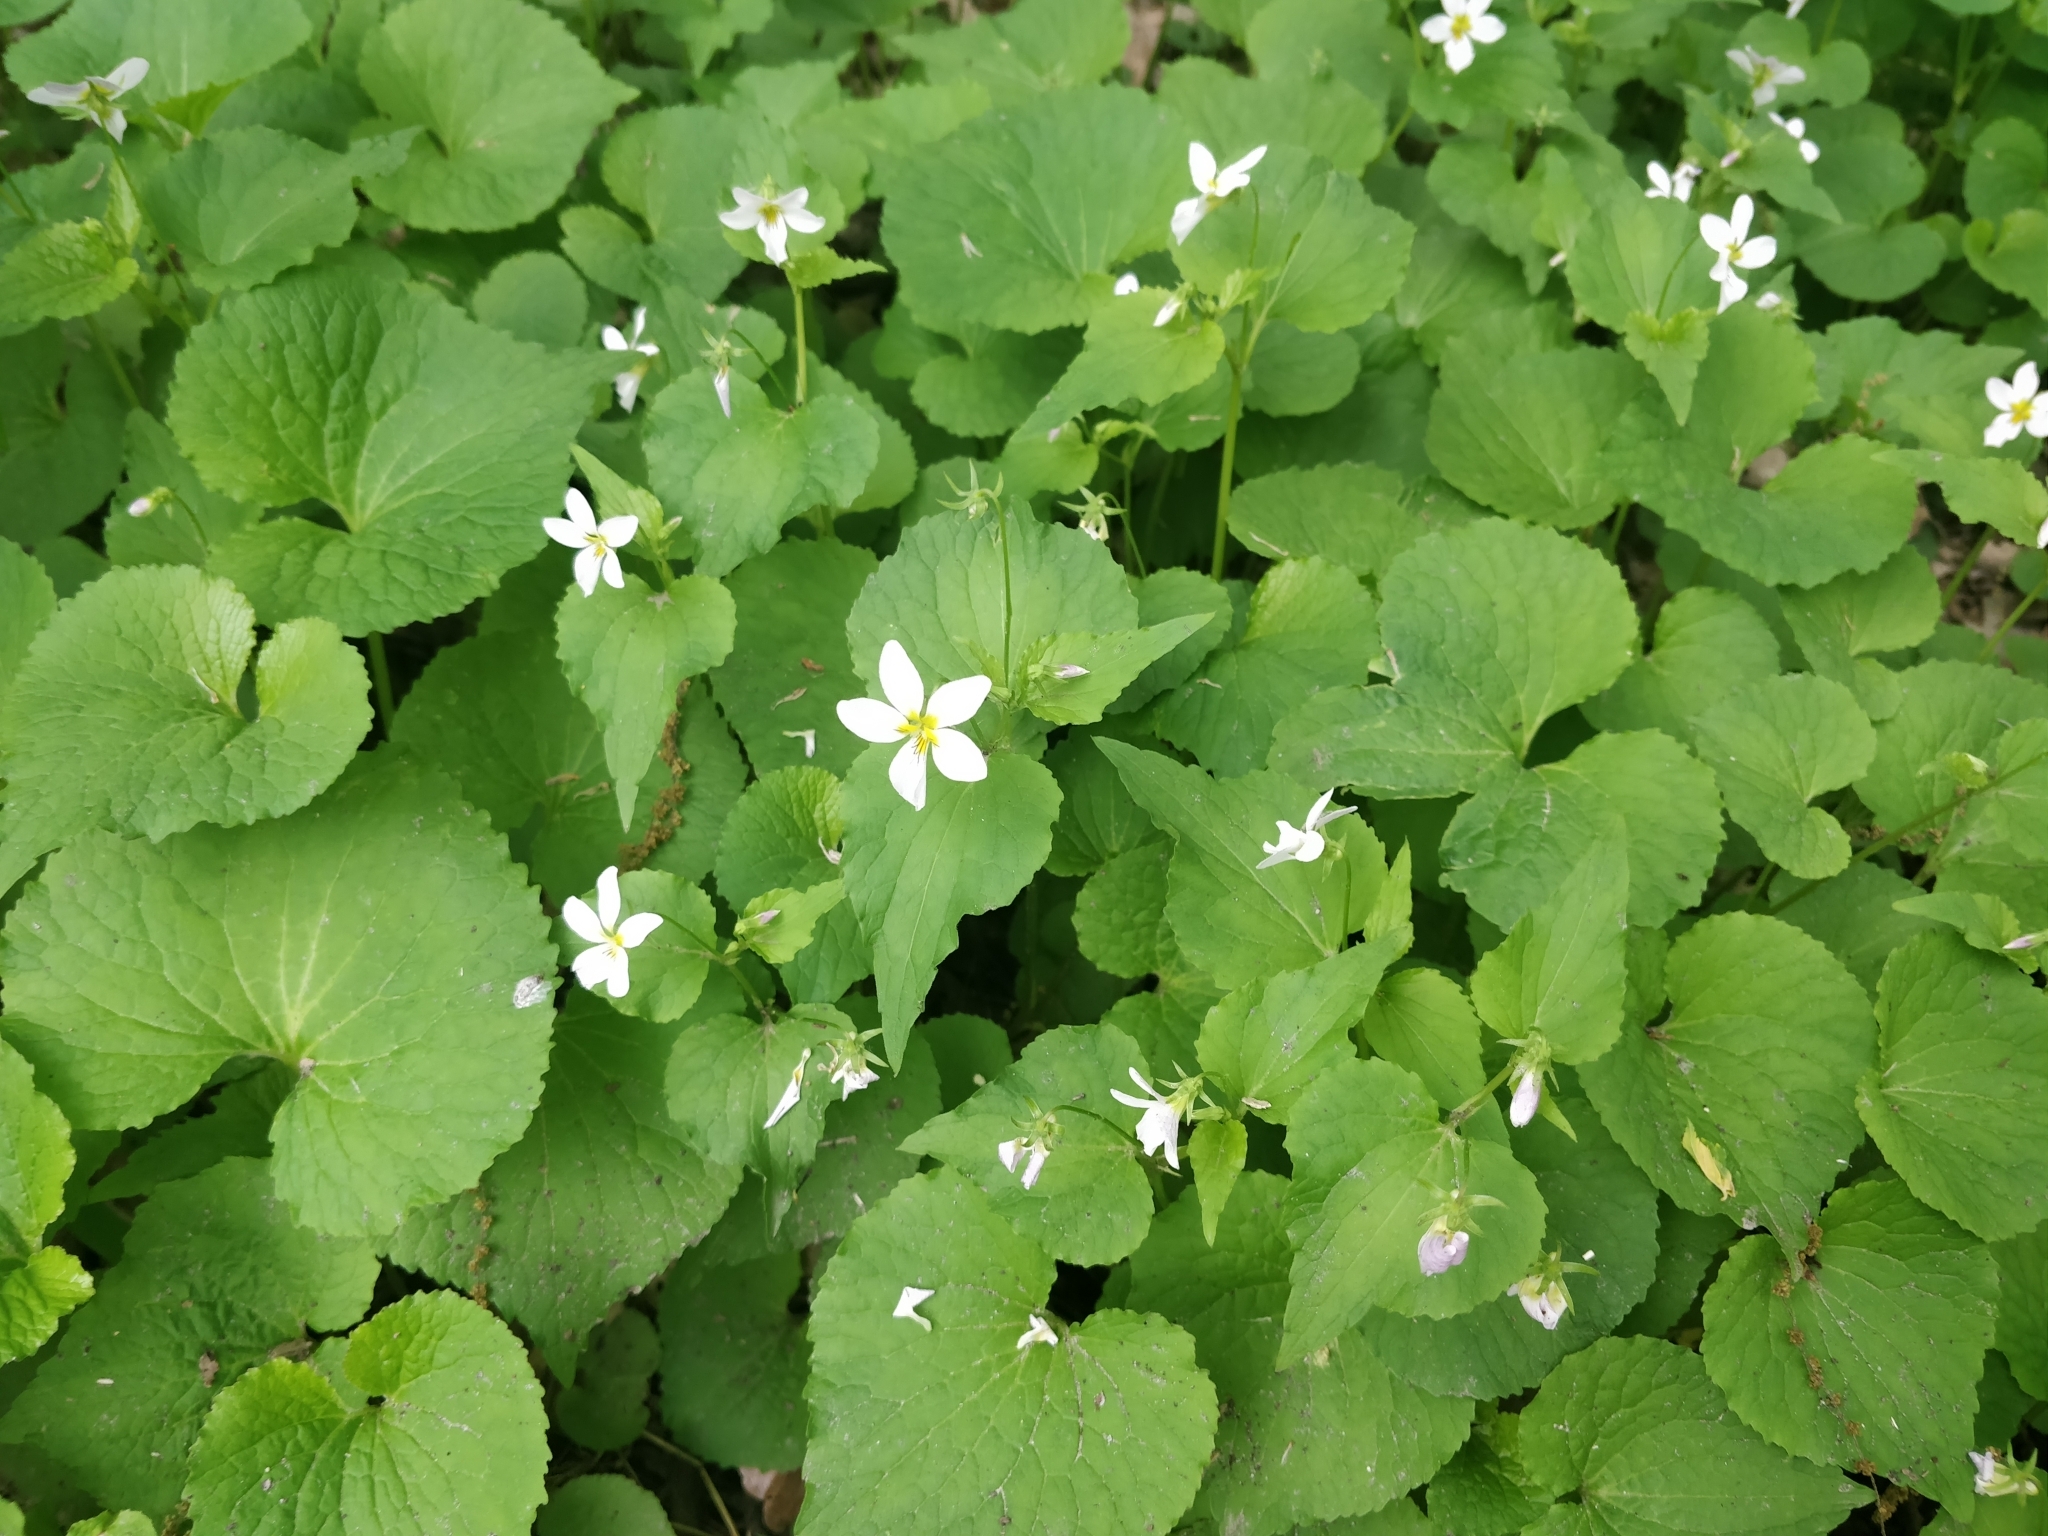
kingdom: Plantae
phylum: Tracheophyta
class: Magnoliopsida
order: Malpighiales
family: Violaceae
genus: Viola
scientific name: Viola canadensis
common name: Canada violet
